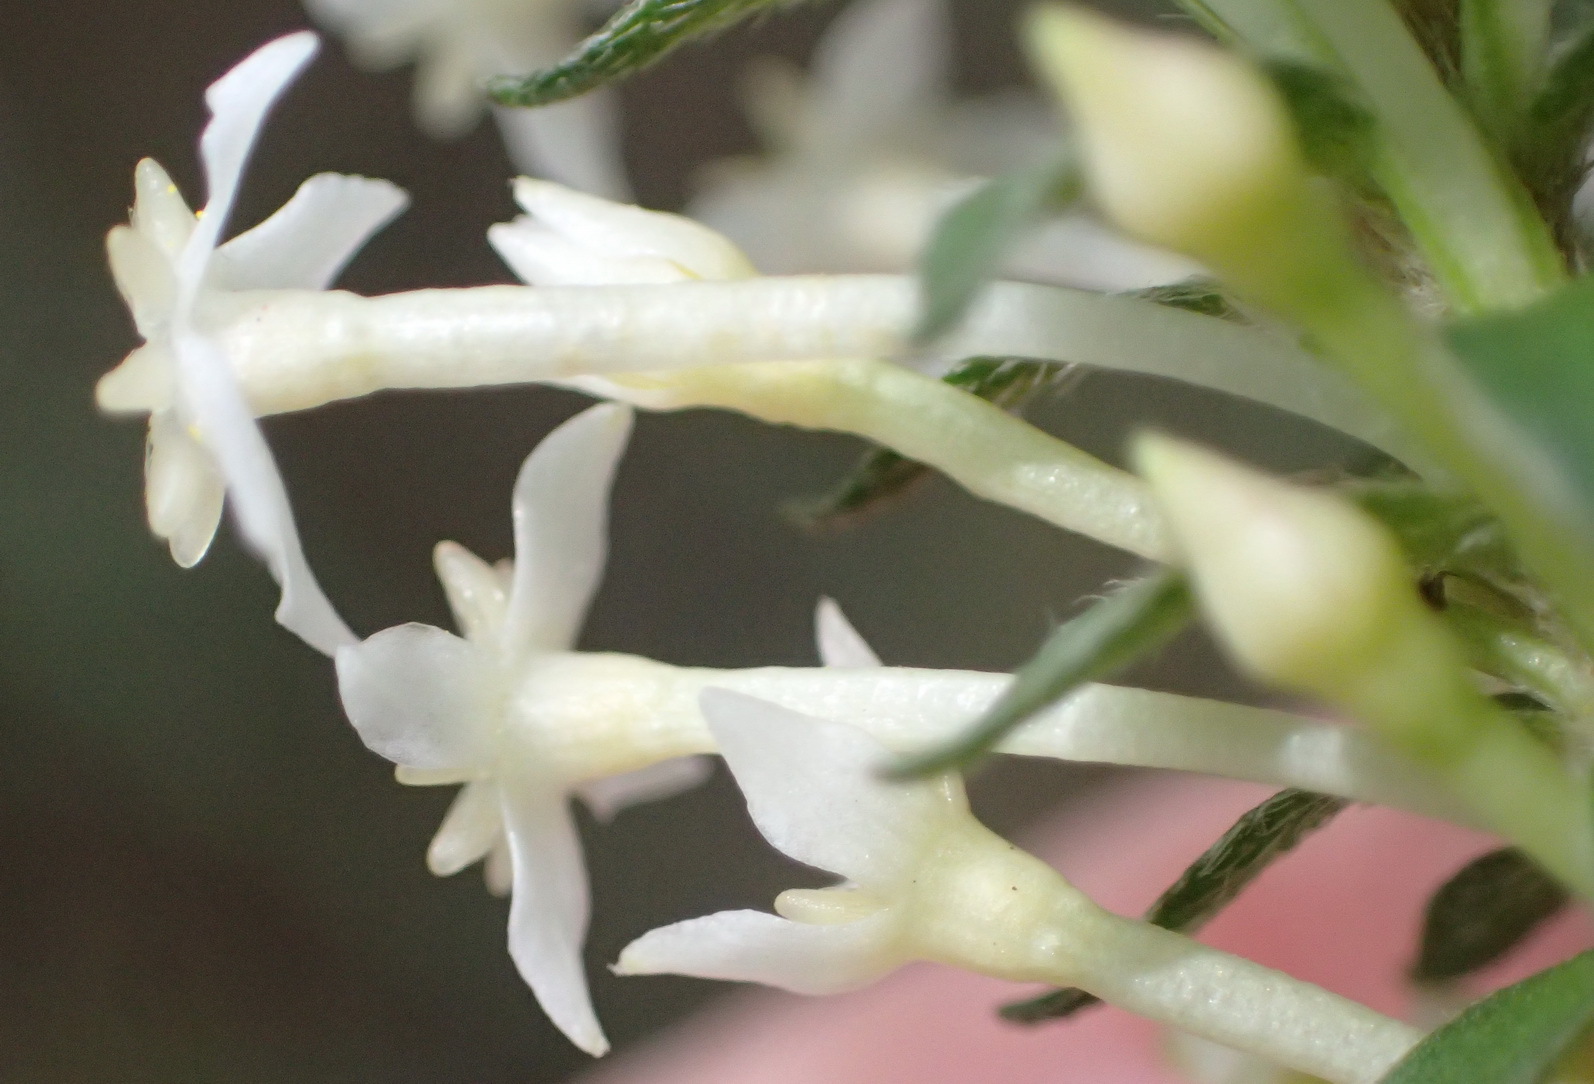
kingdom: Plantae
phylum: Tracheophyta
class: Magnoliopsida
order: Malvales
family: Thymelaeaceae
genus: Struthiola
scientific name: Struthiola hirsuta
